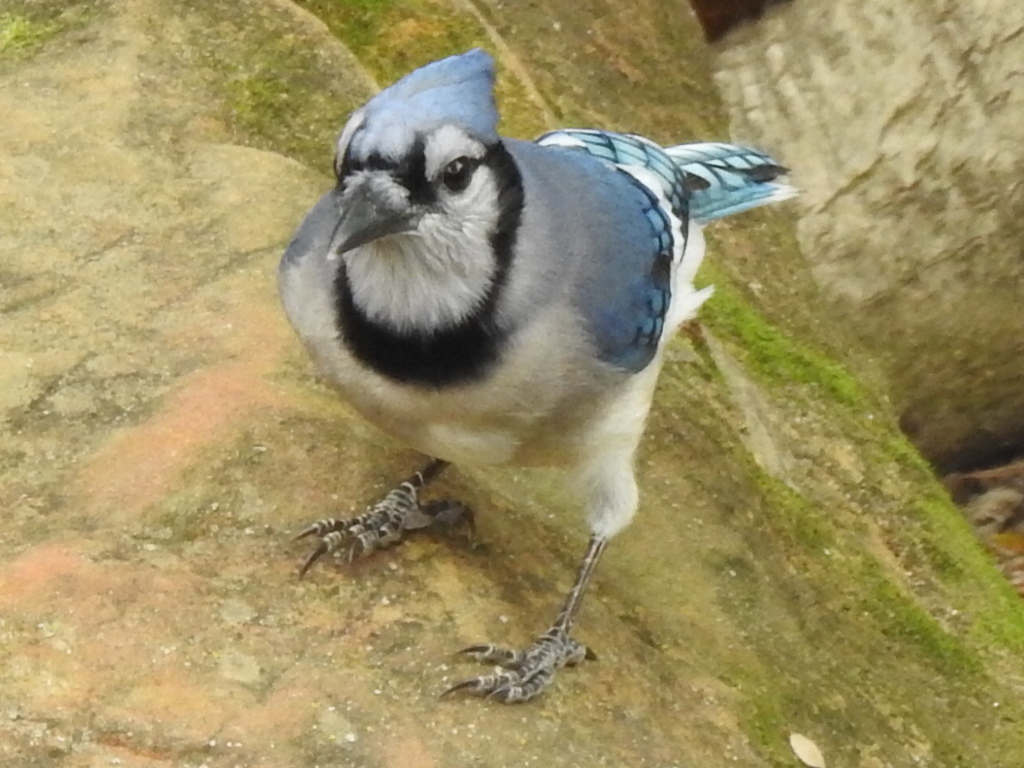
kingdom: Animalia
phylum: Chordata
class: Aves
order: Passeriformes
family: Corvidae
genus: Cyanocitta
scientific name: Cyanocitta cristata
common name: Blue jay
